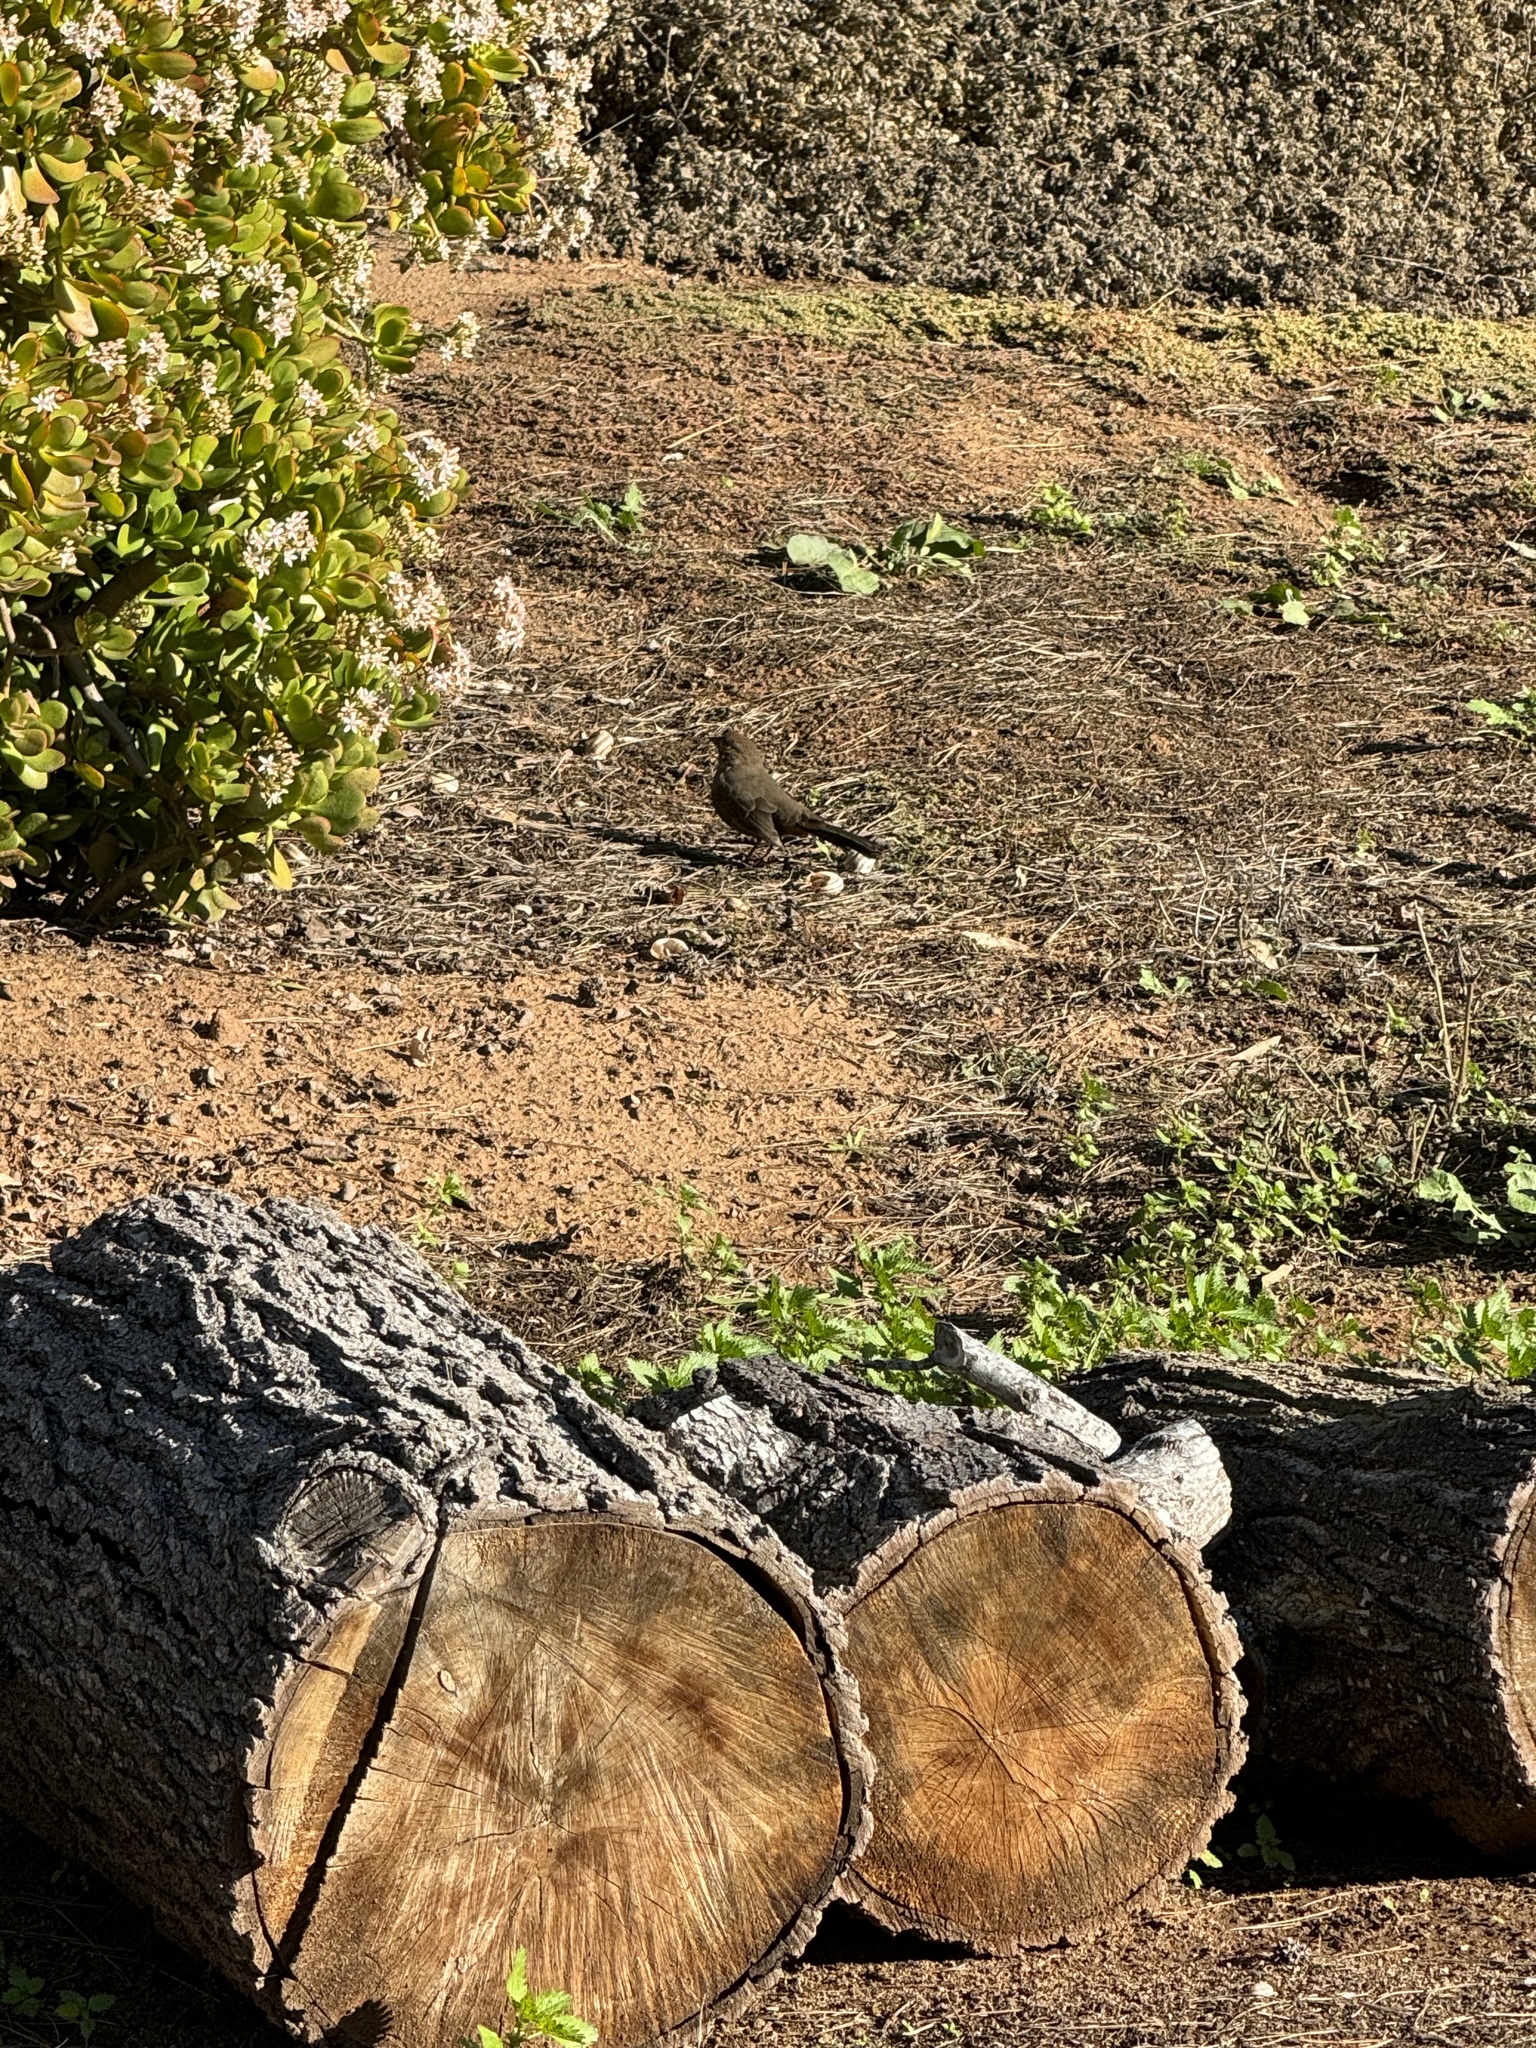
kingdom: Animalia
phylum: Chordata
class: Aves
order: Passeriformes
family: Passerellidae
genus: Melozone
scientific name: Melozone crissalis
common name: California towhee
